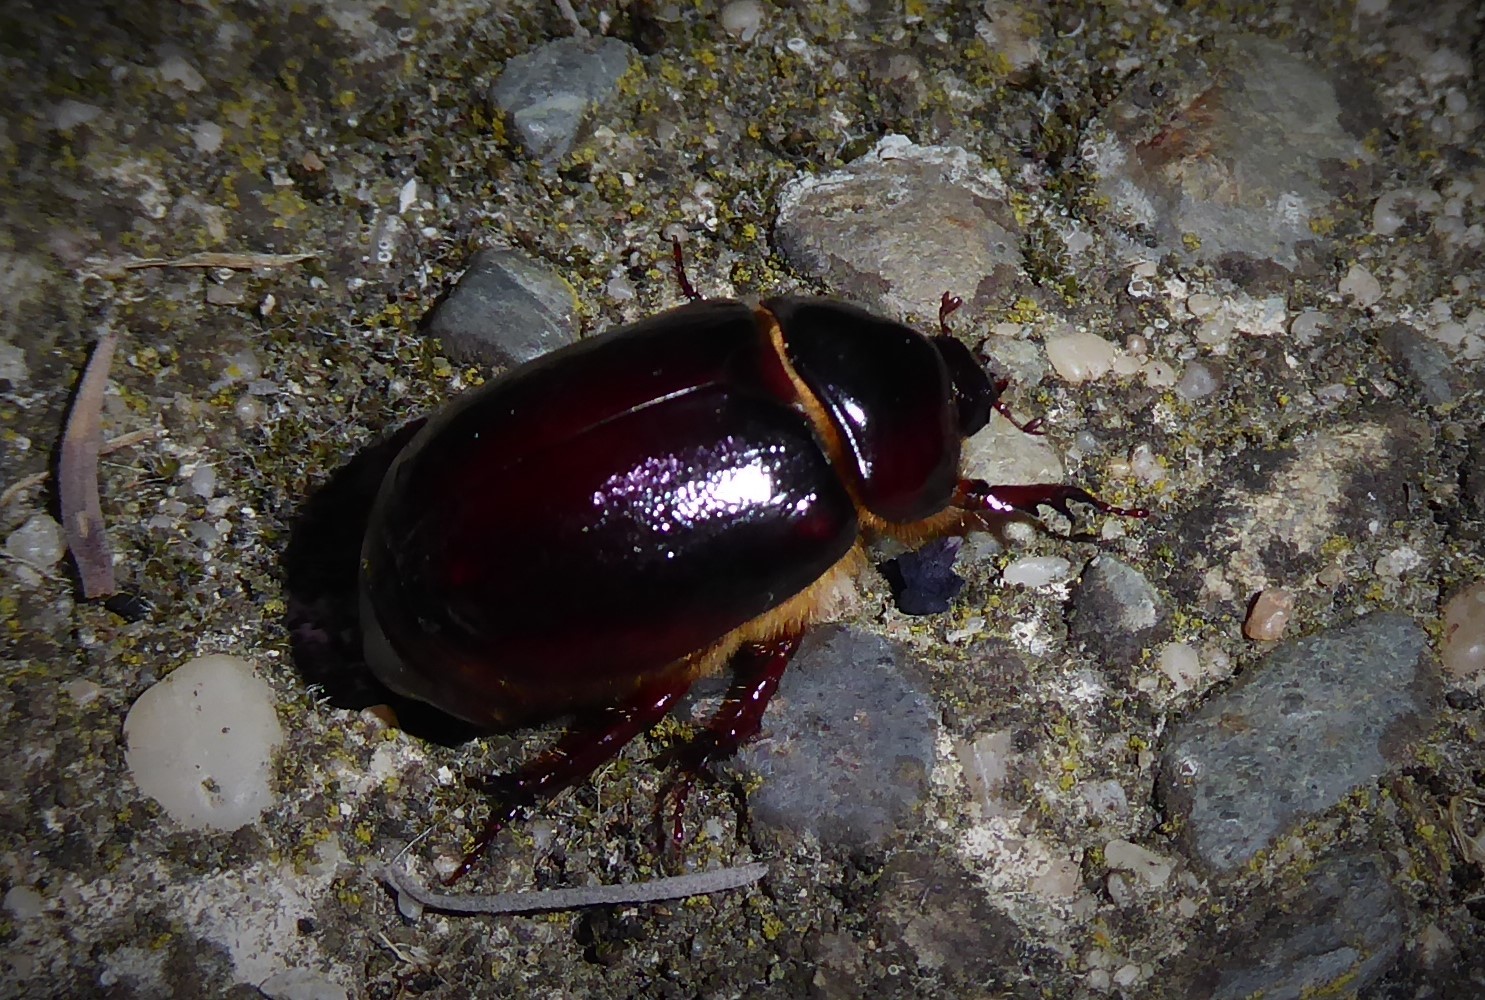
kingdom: Animalia
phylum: Arthropoda
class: Insecta
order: Coleoptera
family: Scarabaeidae
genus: Pericoptus
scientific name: Pericoptus truncatus
